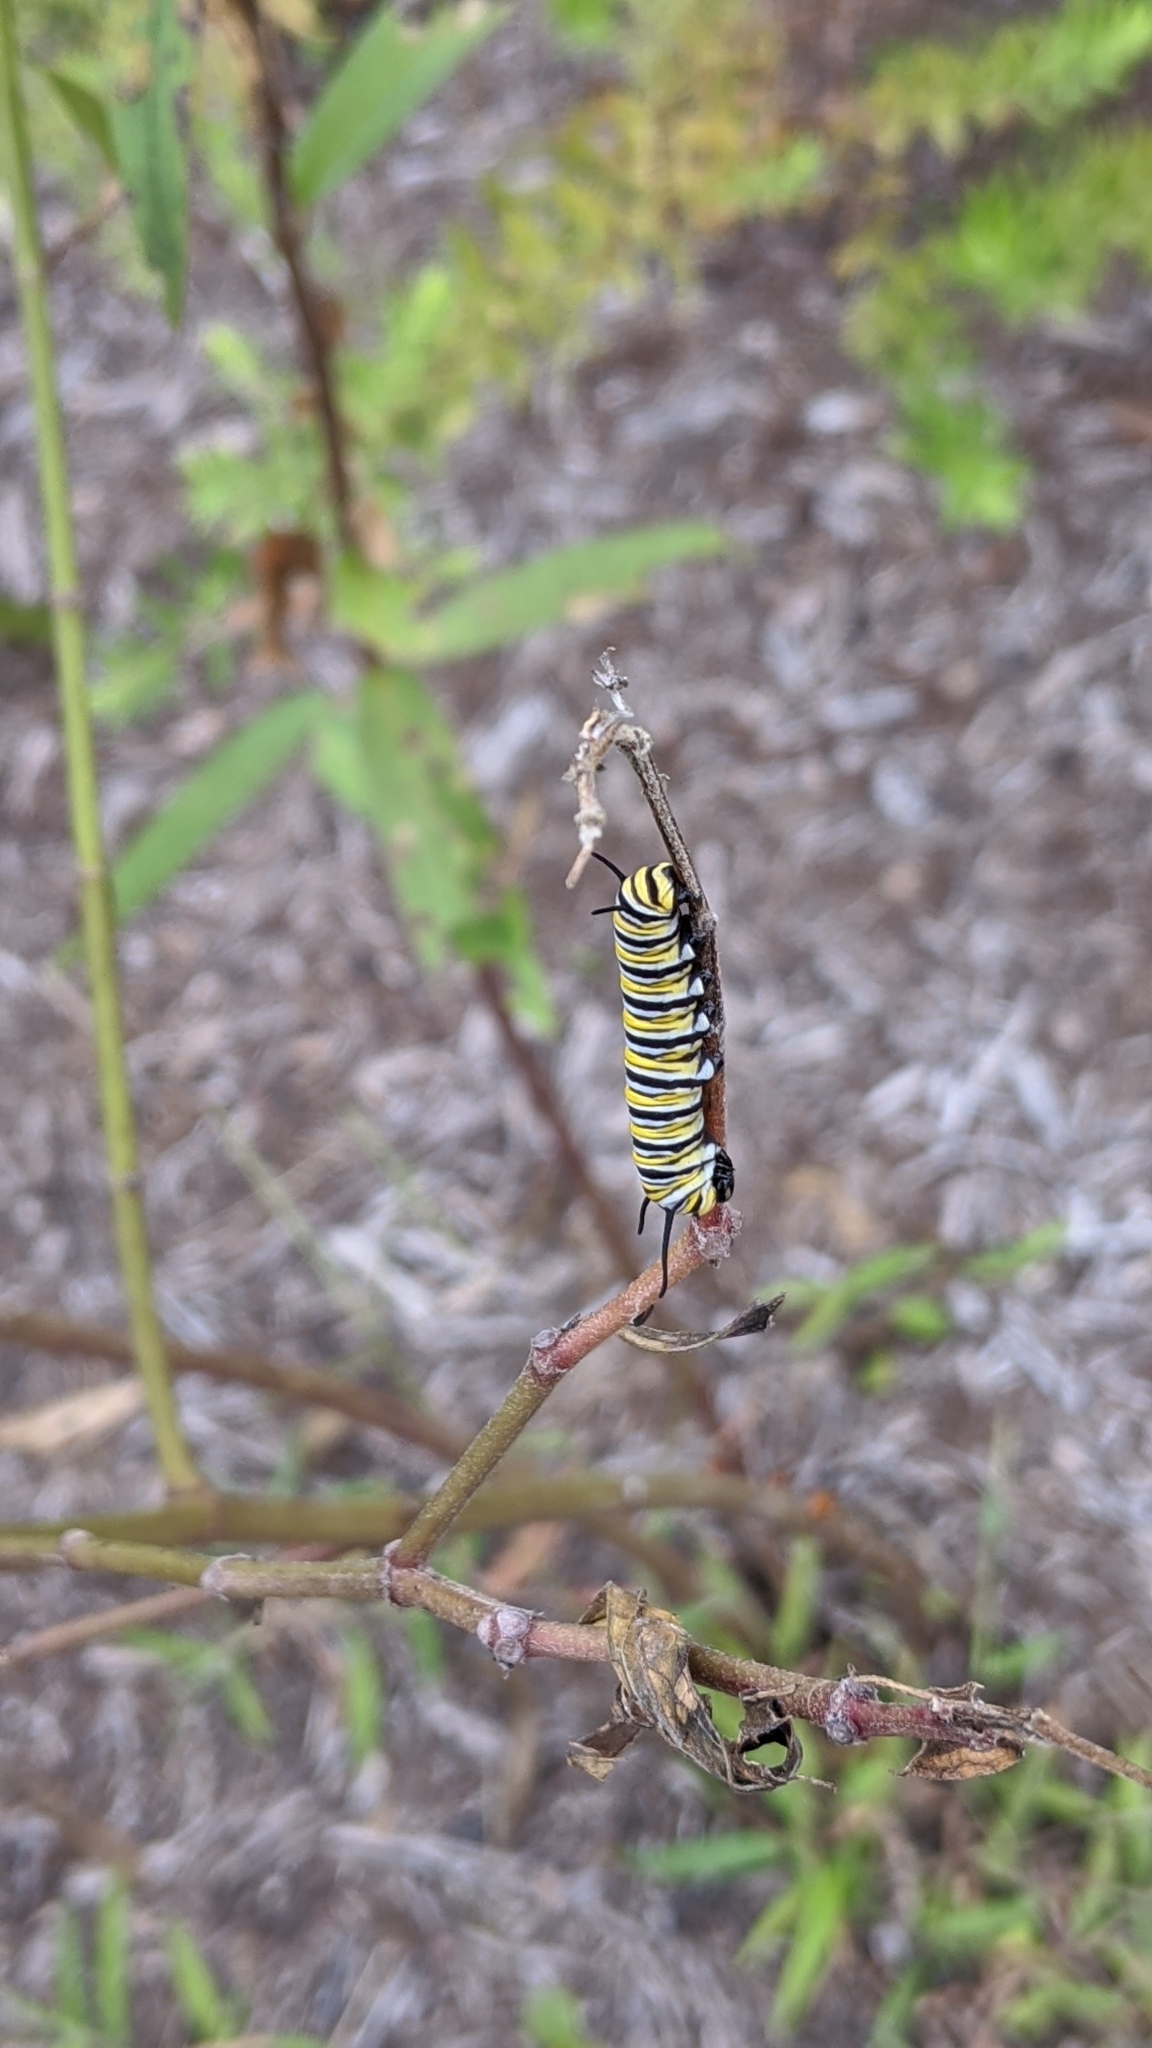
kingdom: Animalia
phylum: Arthropoda
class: Insecta
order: Lepidoptera
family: Nymphalidae
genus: Danaus
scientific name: Danaus plexippus
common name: Monarch
